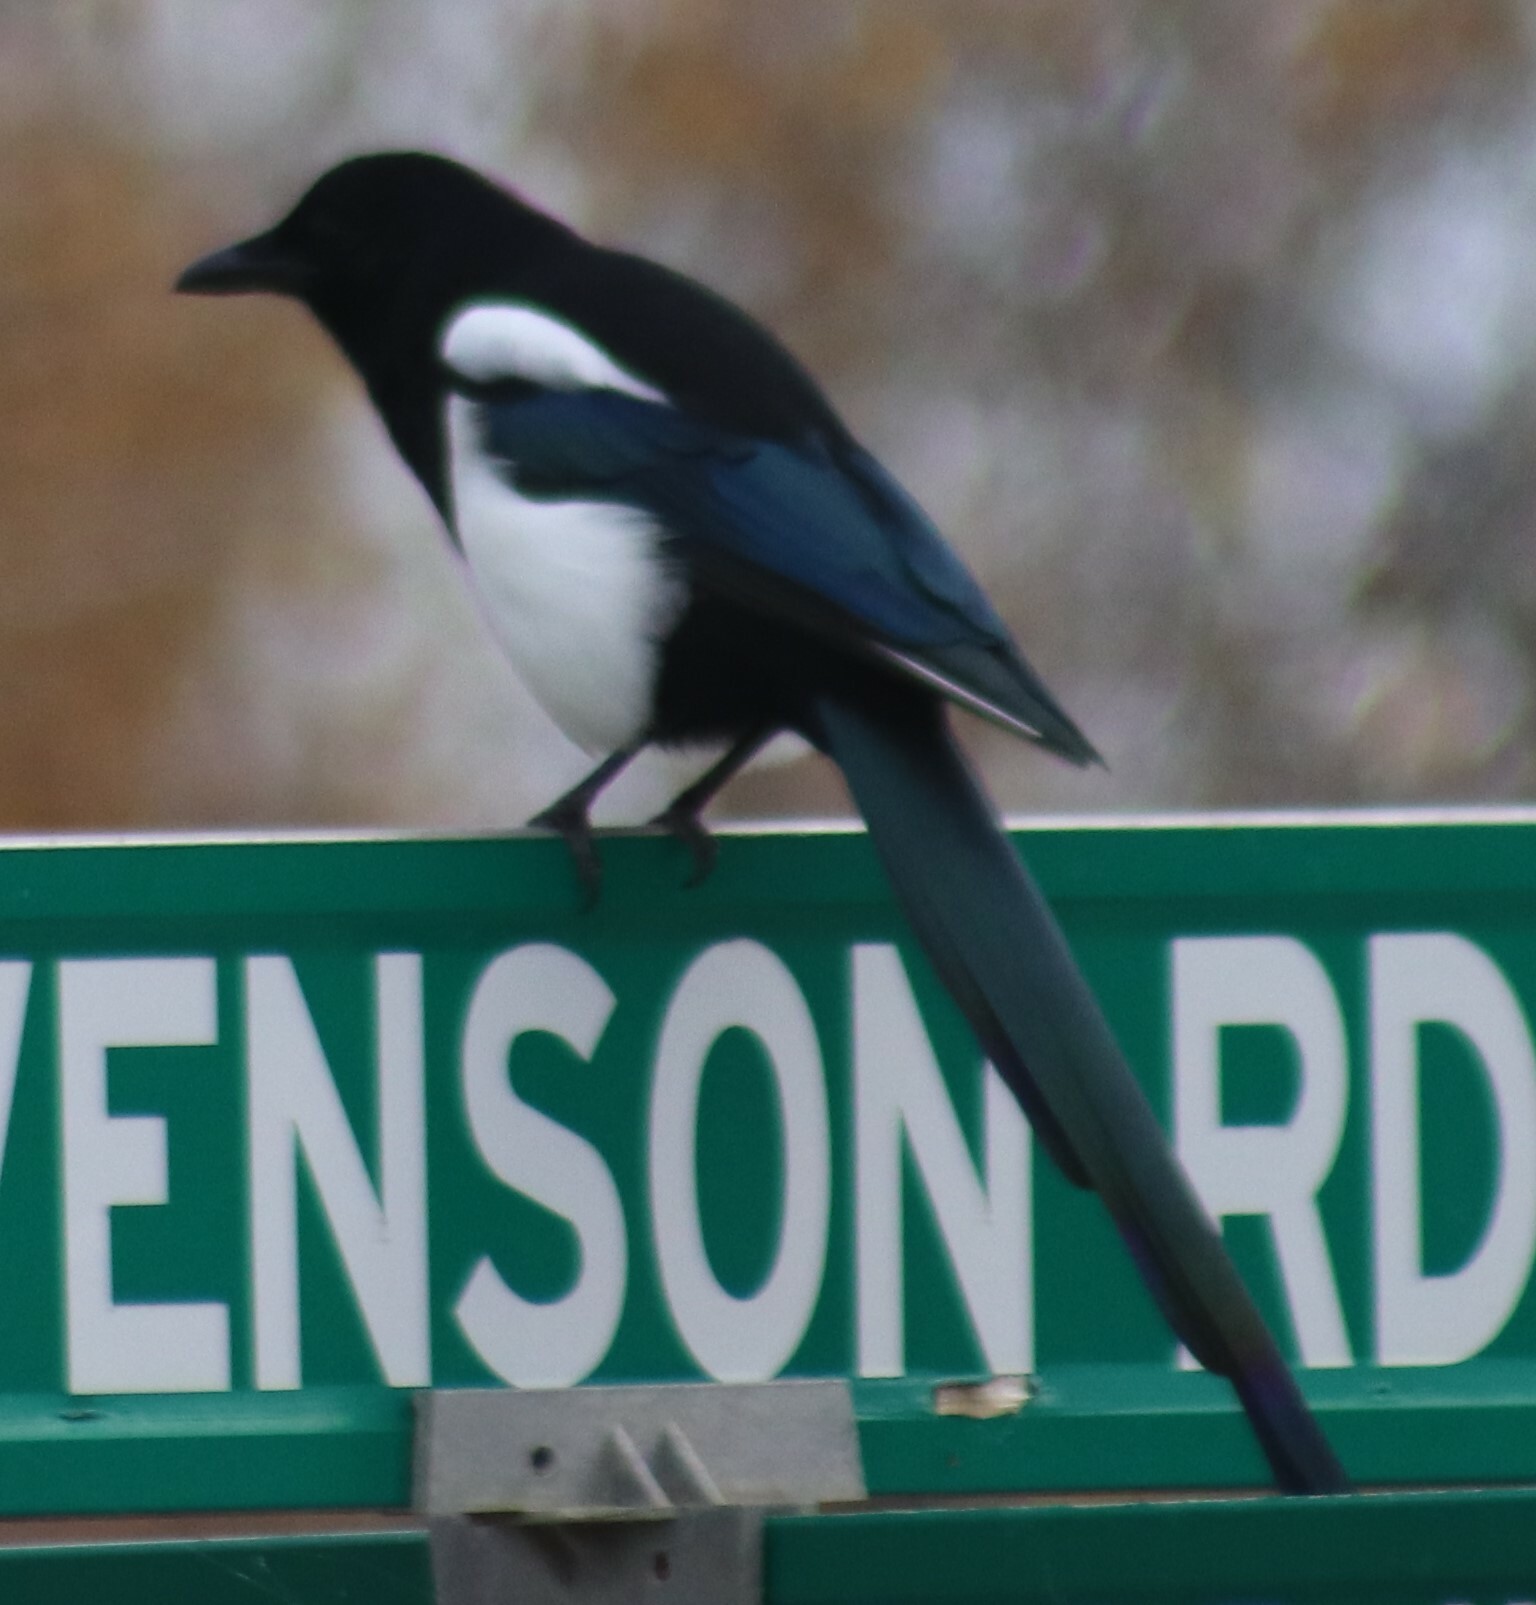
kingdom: Animalia
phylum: Chordata
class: Aves
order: Passeriformes
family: Corvidae
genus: Pica
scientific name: Pica hudsonia
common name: Black-billed magpie
